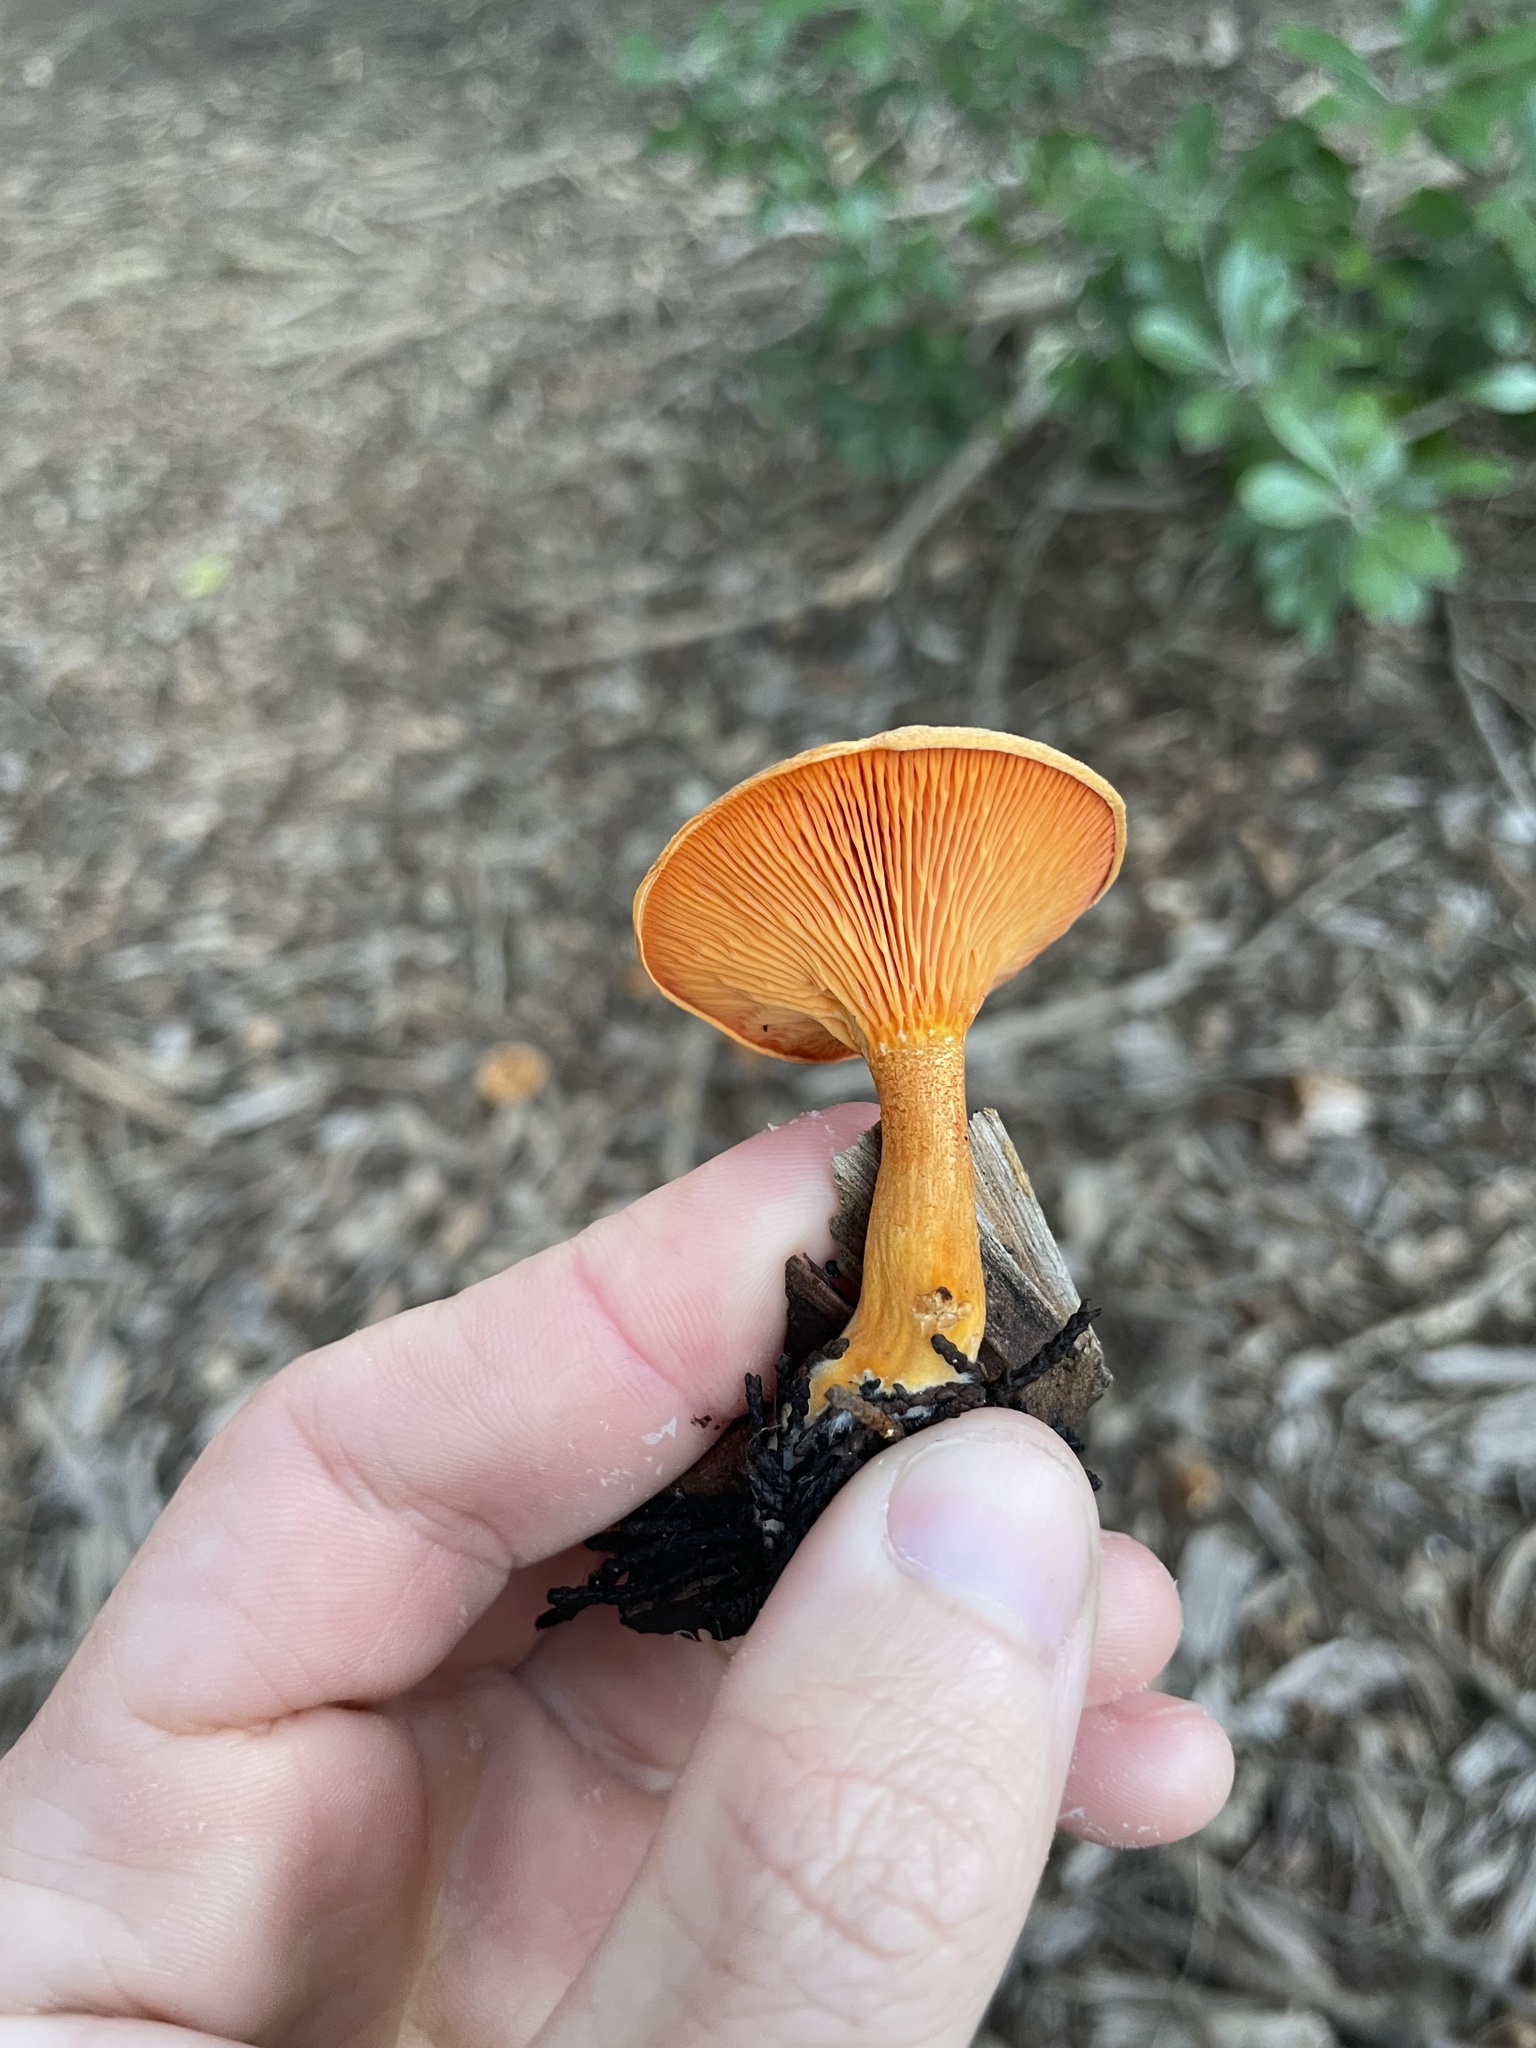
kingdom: Fungi
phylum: Basidiomycota
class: Agaricomycetes
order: Boletales
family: Hygrophoropsidaceae
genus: Hygrophoropsis
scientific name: Hygrophoropsis aurantiaca
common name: False chanterelle
